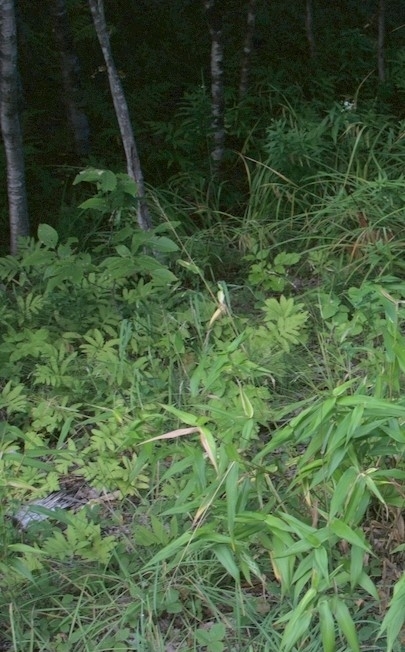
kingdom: Plantae
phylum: Tracheophyta
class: Polypodiopsida
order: Polypodiales
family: Onocleaceae
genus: Onoclea
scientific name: Onoclea sensibilis
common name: Sensitive fern
